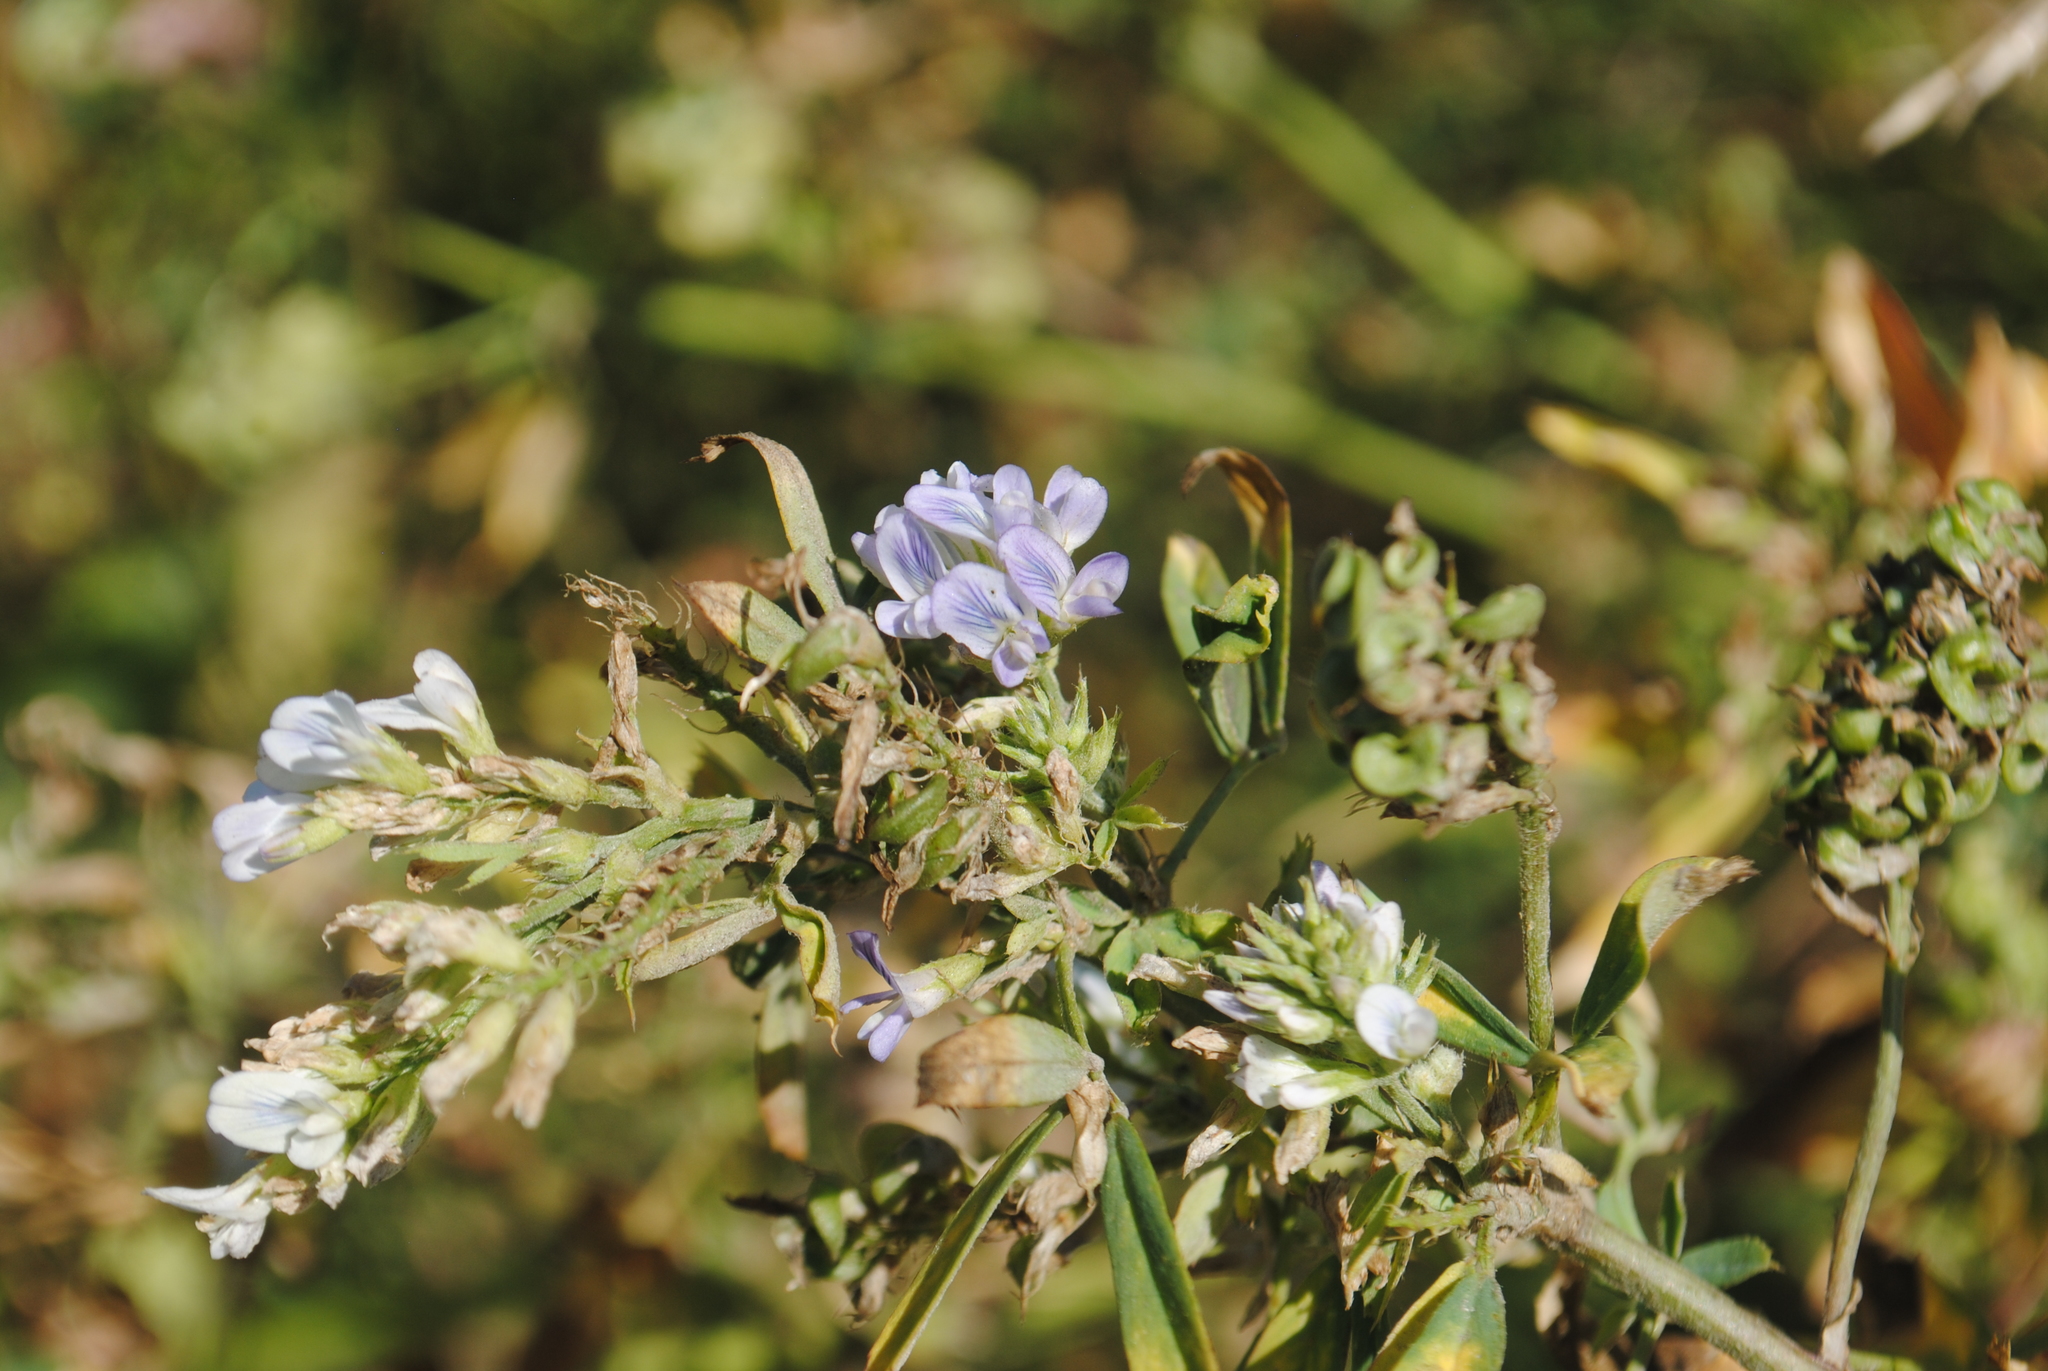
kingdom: Plantae
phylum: Tracheophyta
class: Magnoliopsida
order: Fabales
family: Fabaceae
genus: Medicago
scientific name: Medicago sativa
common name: Alfalfa
